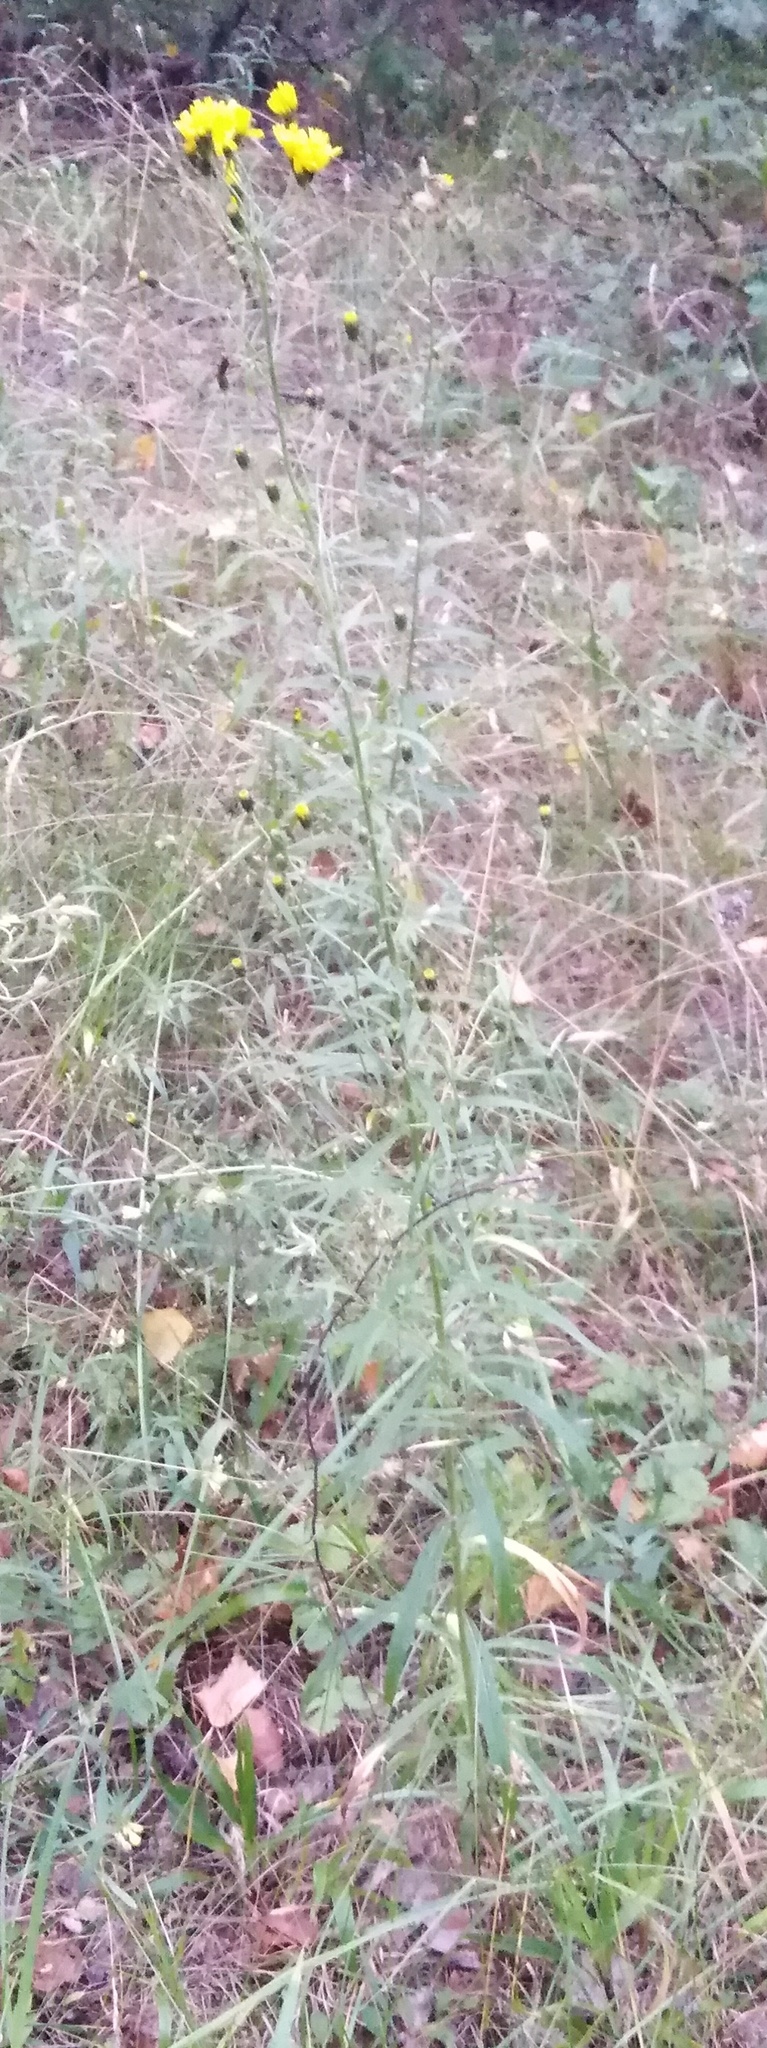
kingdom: Plantae
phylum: Tracheophyta
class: Magnoliopsida
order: Asterales
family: Asteraceae
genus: Hieracium
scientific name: Hieracium umbellatum
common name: Northern hawkweed
